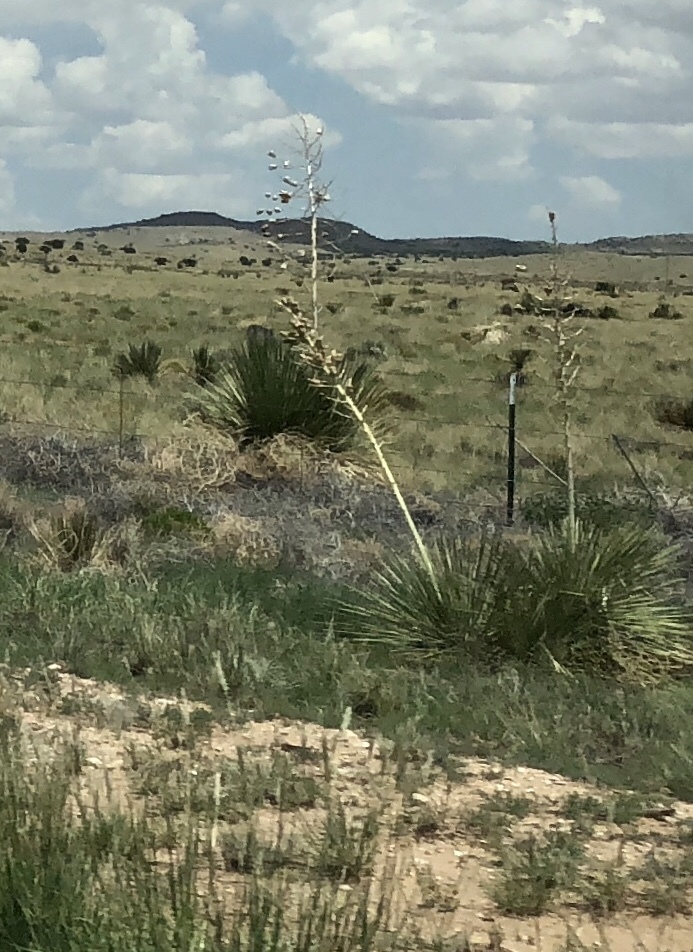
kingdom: Plantae
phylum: Tracheophyta
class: Liliopsida
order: Asparagales
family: Asparagaceae
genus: Yucca
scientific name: Yucca elata
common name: Palmella
